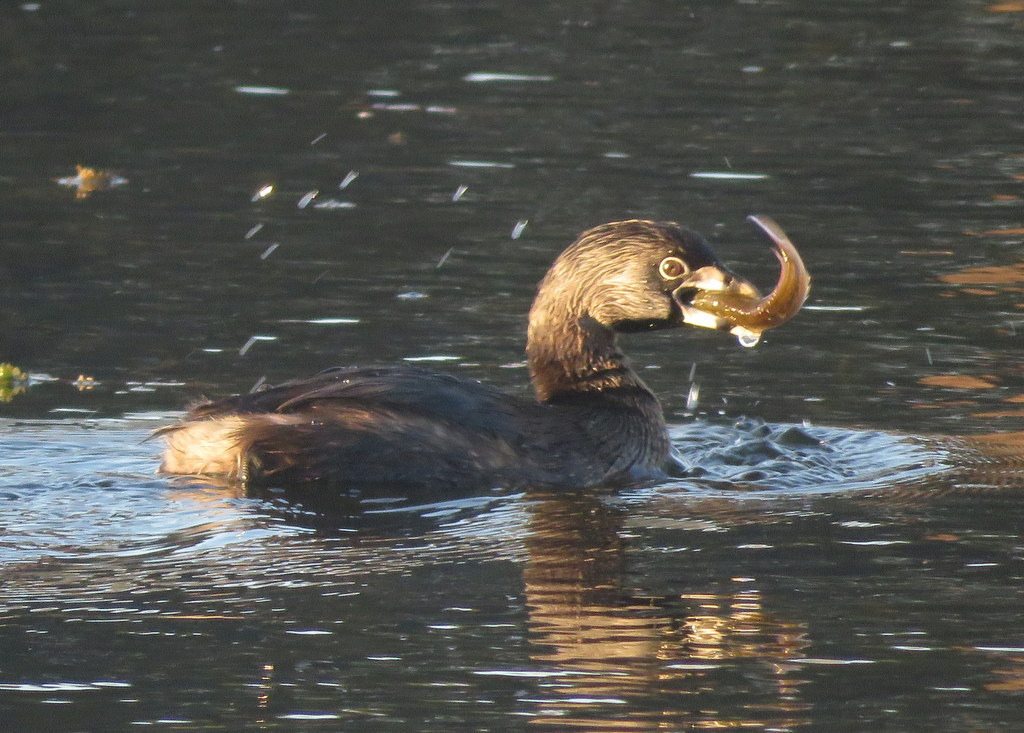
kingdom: Animalia
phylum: Chordata
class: Aves
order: Podicipediformes
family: Podicipedidae
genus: Podilymbus
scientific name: Podilymbus podiceps
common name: Pied-billed grebe
